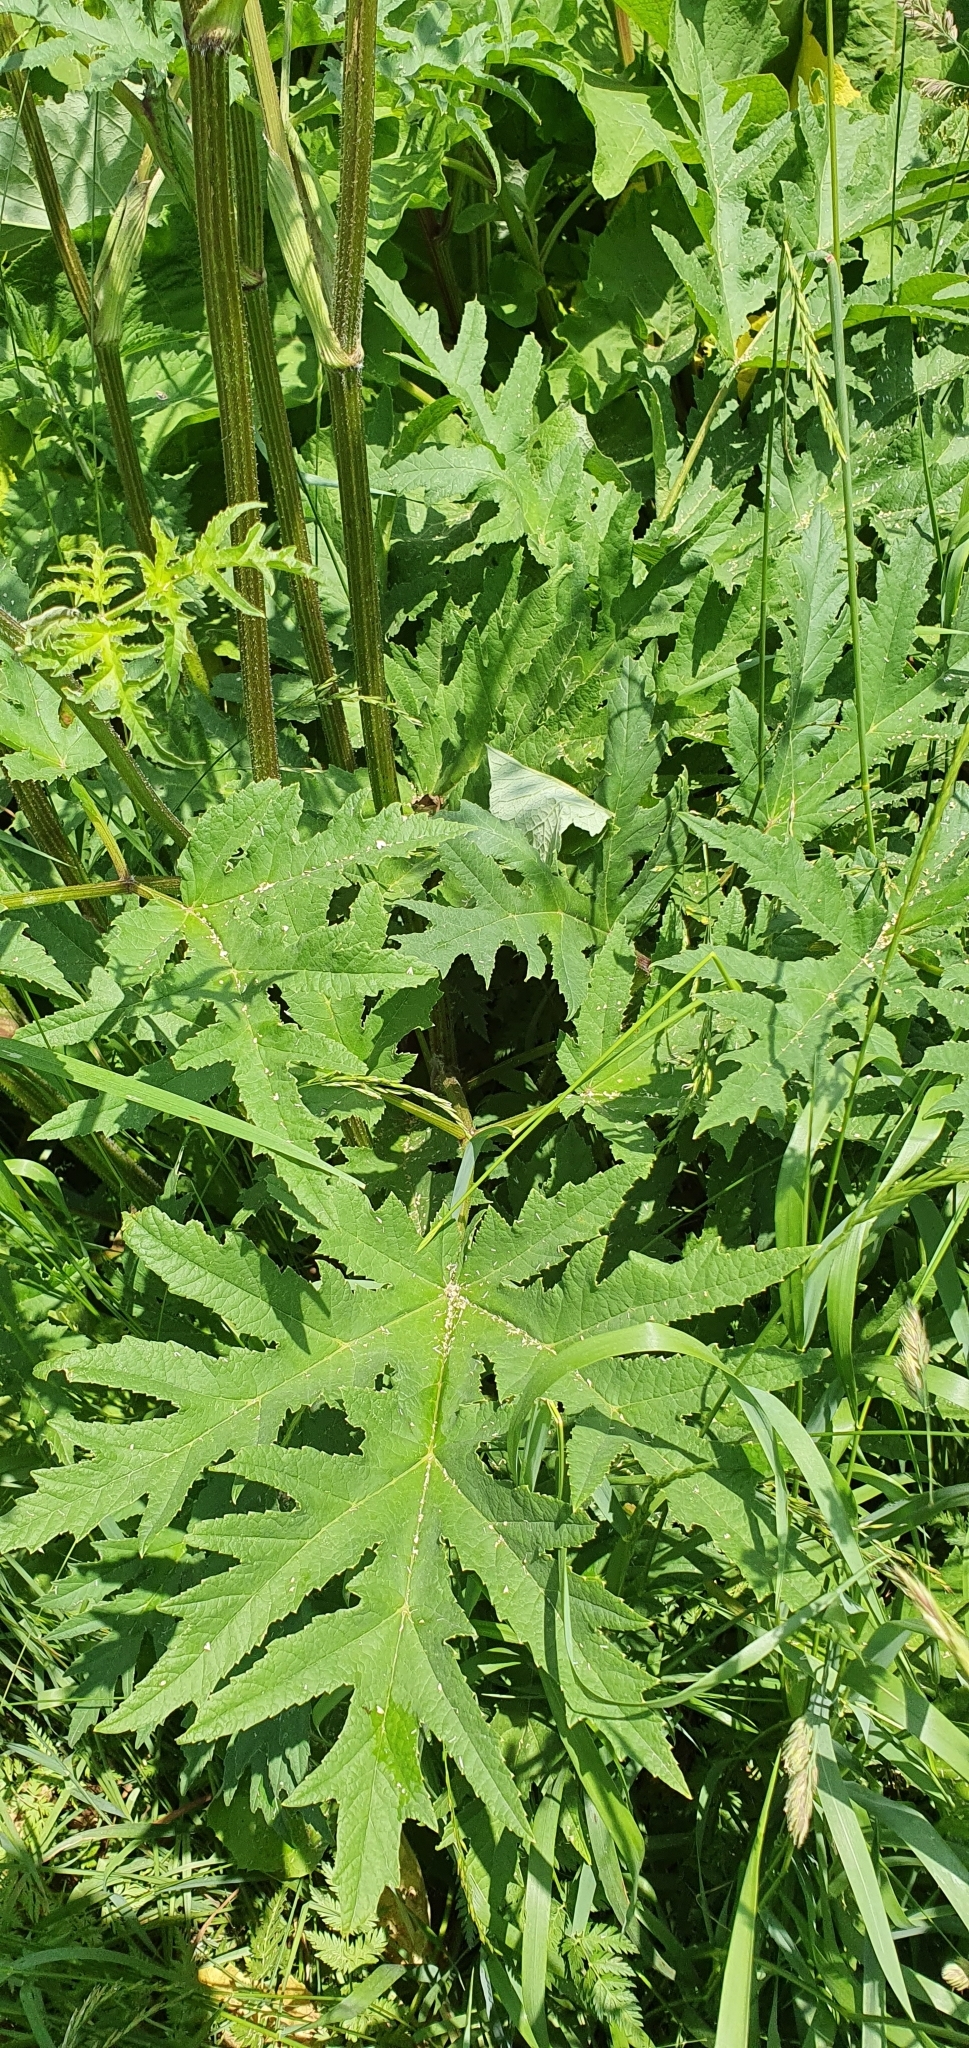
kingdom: Plantae
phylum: Tracheophyta
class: Magnoliopsida
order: Apiales
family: Apiaceae
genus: Heracleum
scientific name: Heracleum sphondylium
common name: Hogweed
